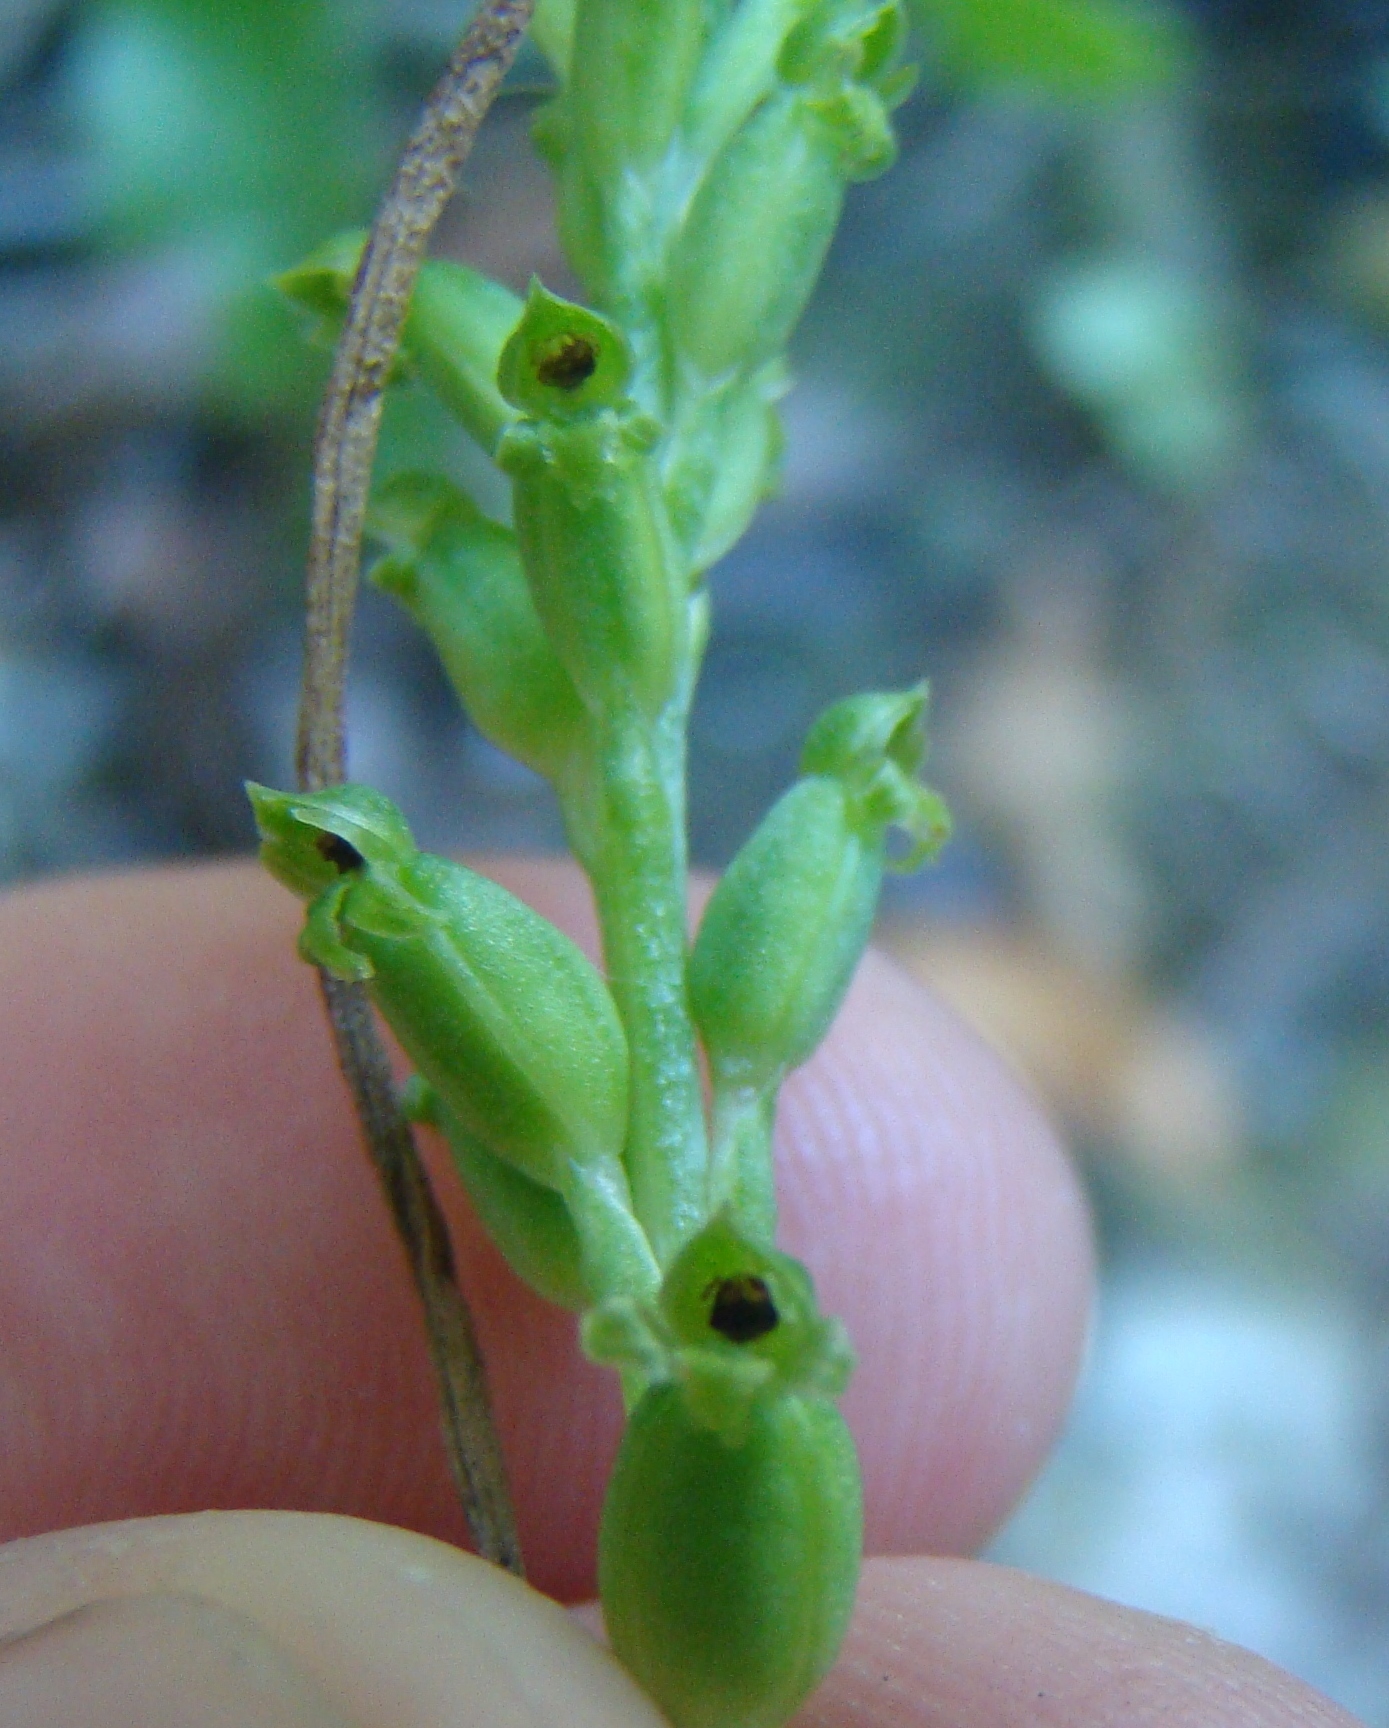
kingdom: Plantae
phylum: Tracheophyta
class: Liliopsida
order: Asparagales
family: Orchidaceae
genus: Microtis
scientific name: Microtis unifolia
